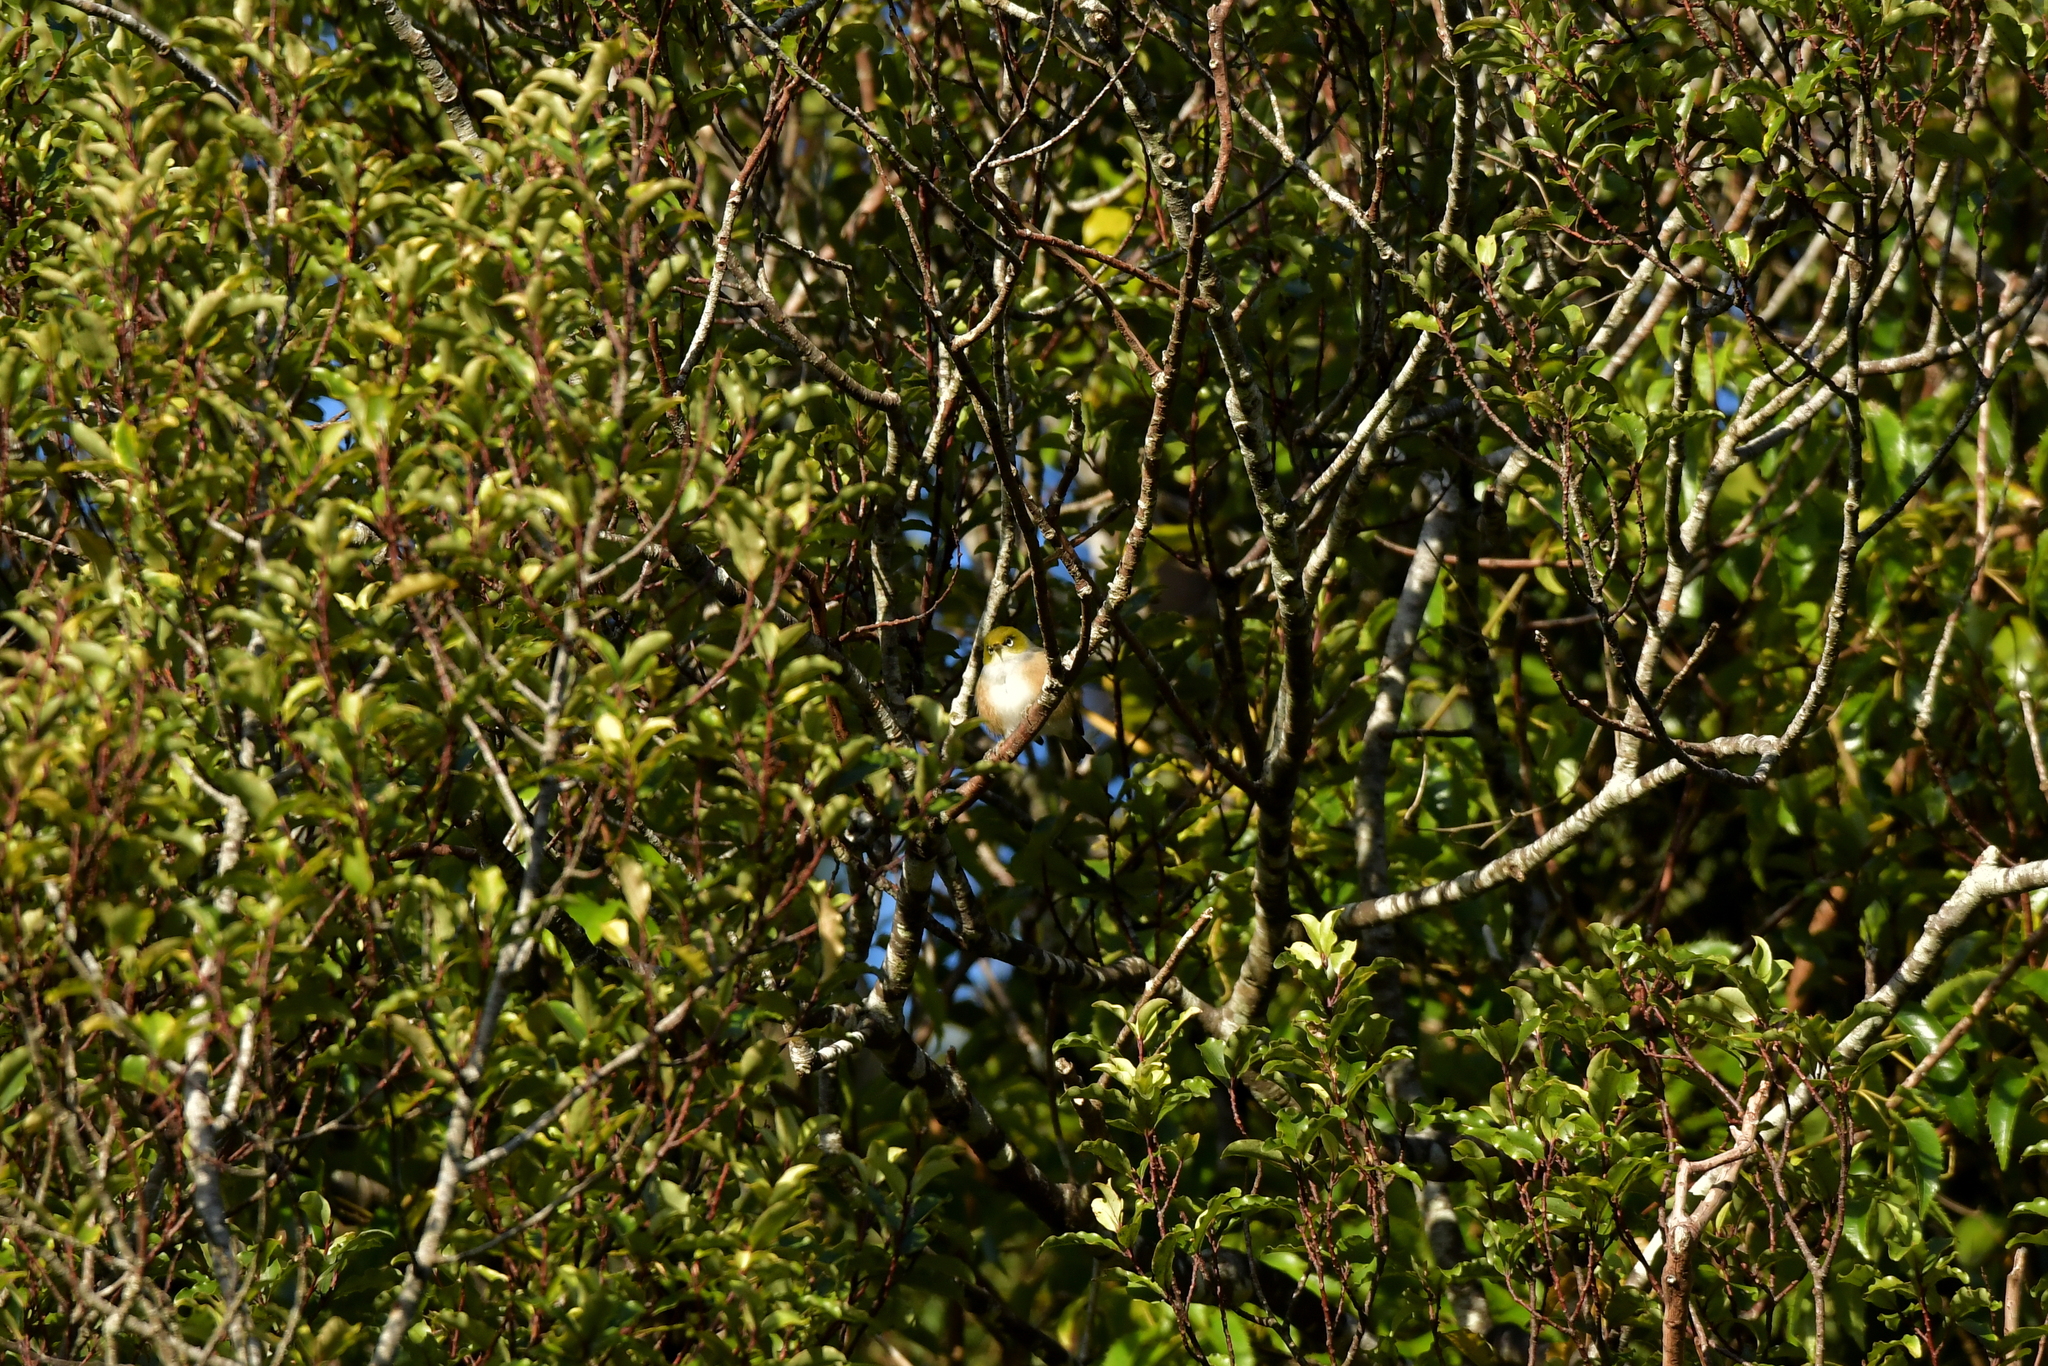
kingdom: Animalia
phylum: Chordata
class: Aves
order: Passeriformes
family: Zosteropidae
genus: Zosterops
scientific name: Zosterops lateralis
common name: Silvereye
